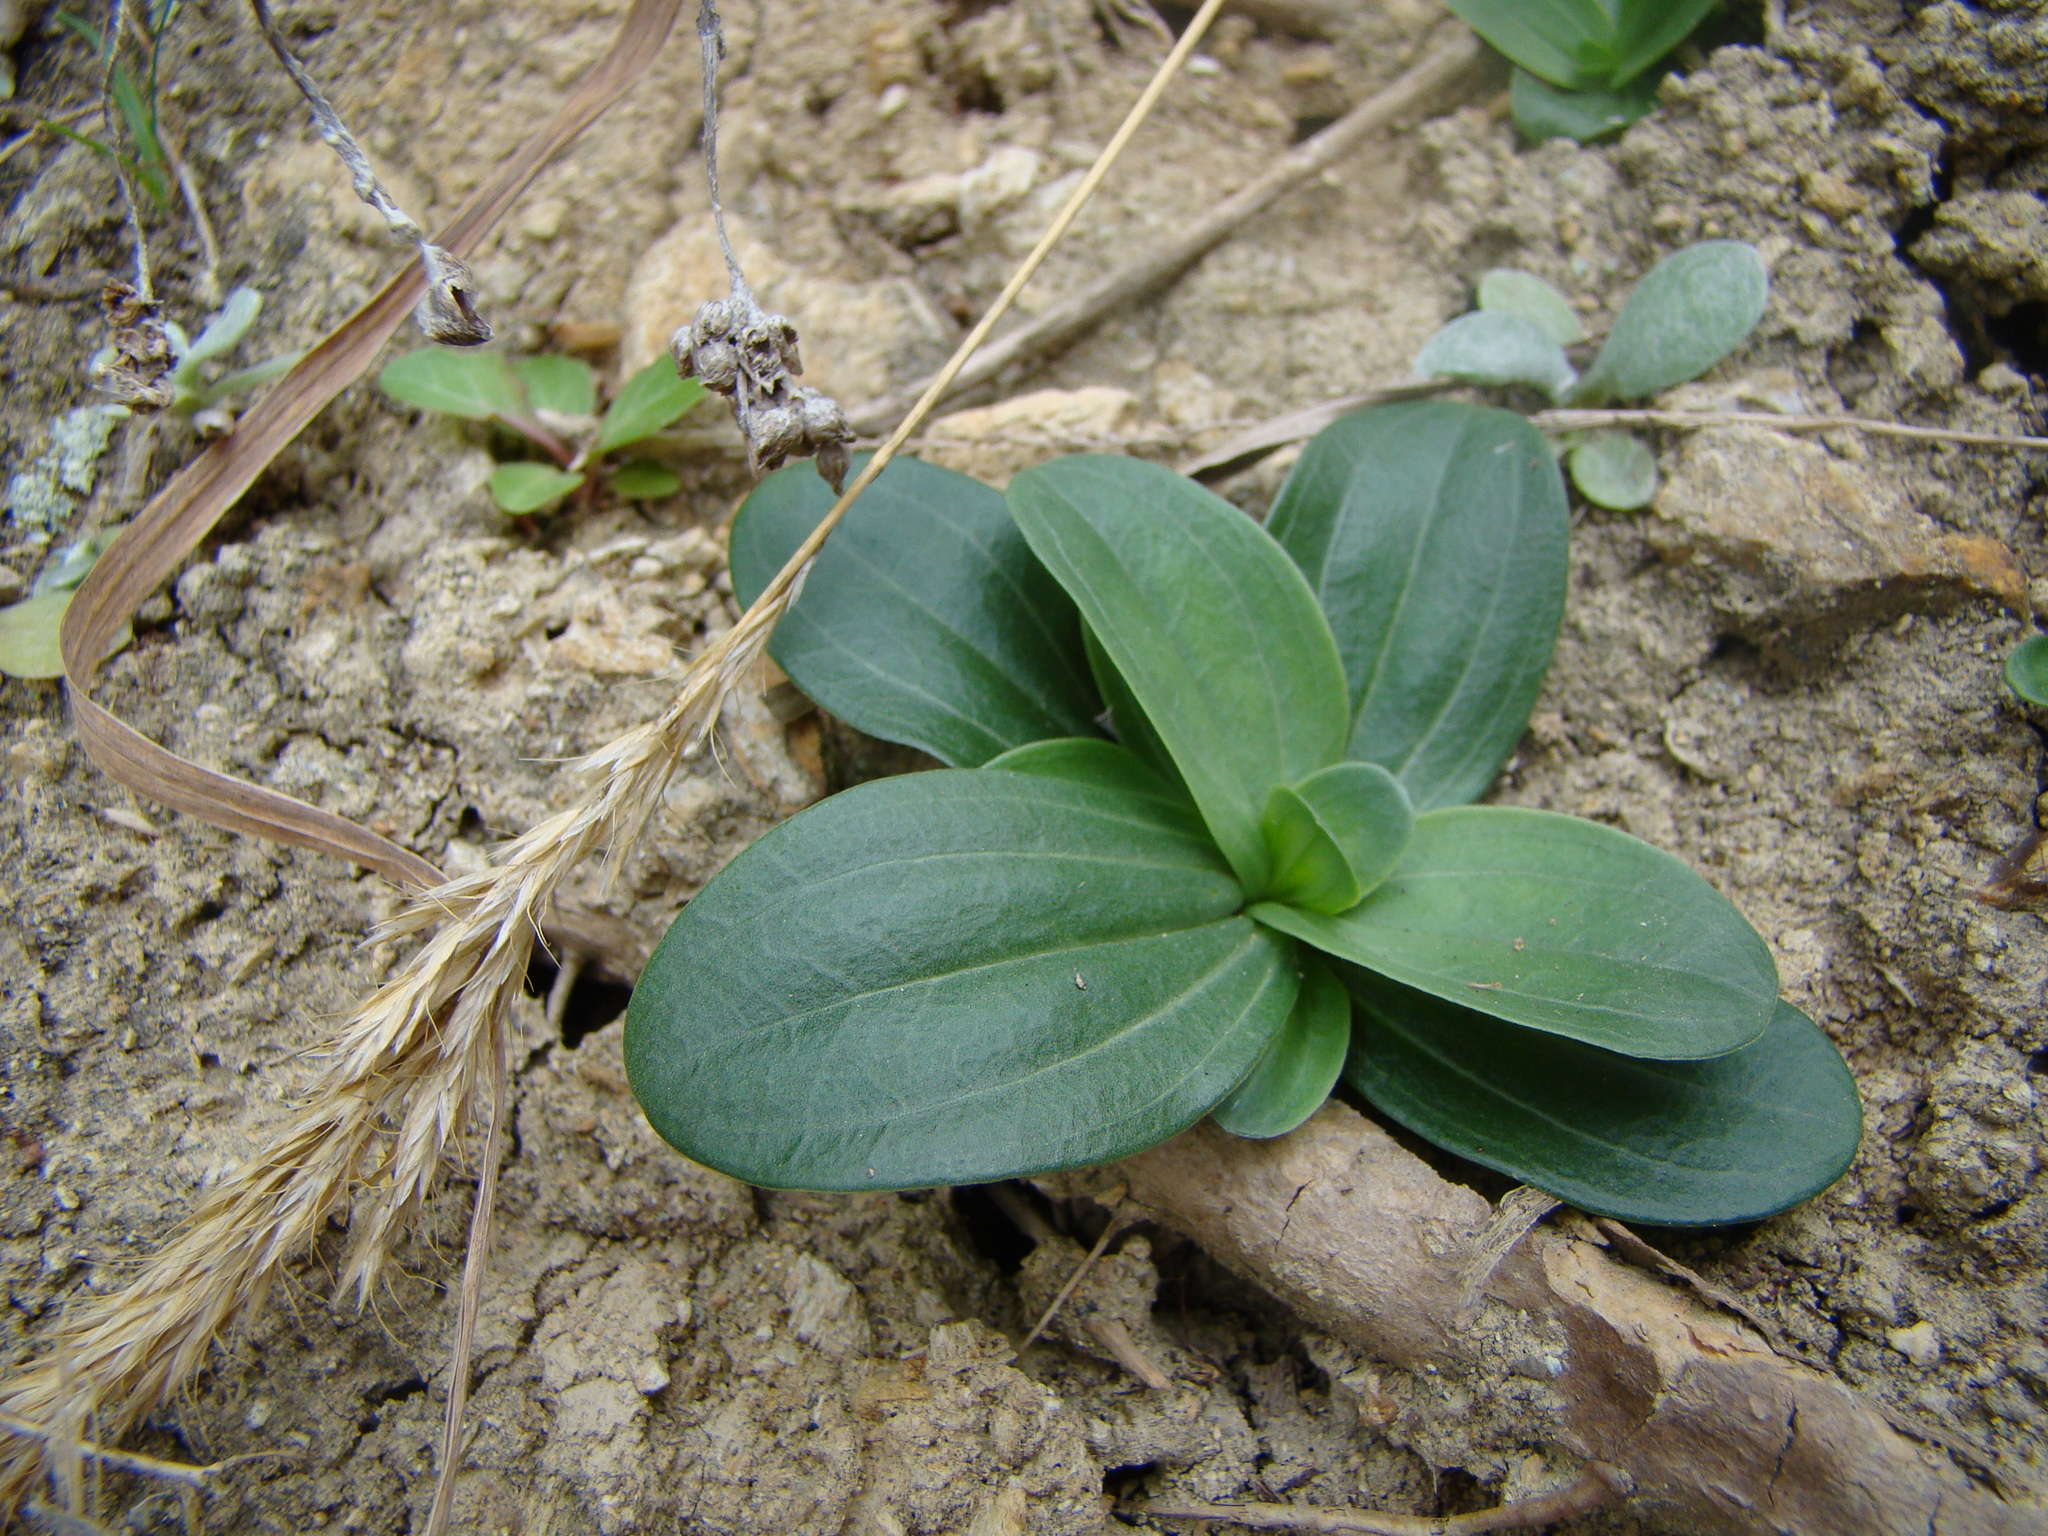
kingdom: Plantae
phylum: Tracheophyta
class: Magnoliopsida
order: Gentianales
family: Gentianaceae
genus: Centaurium
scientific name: Centaurium erythraea
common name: Common centaury
